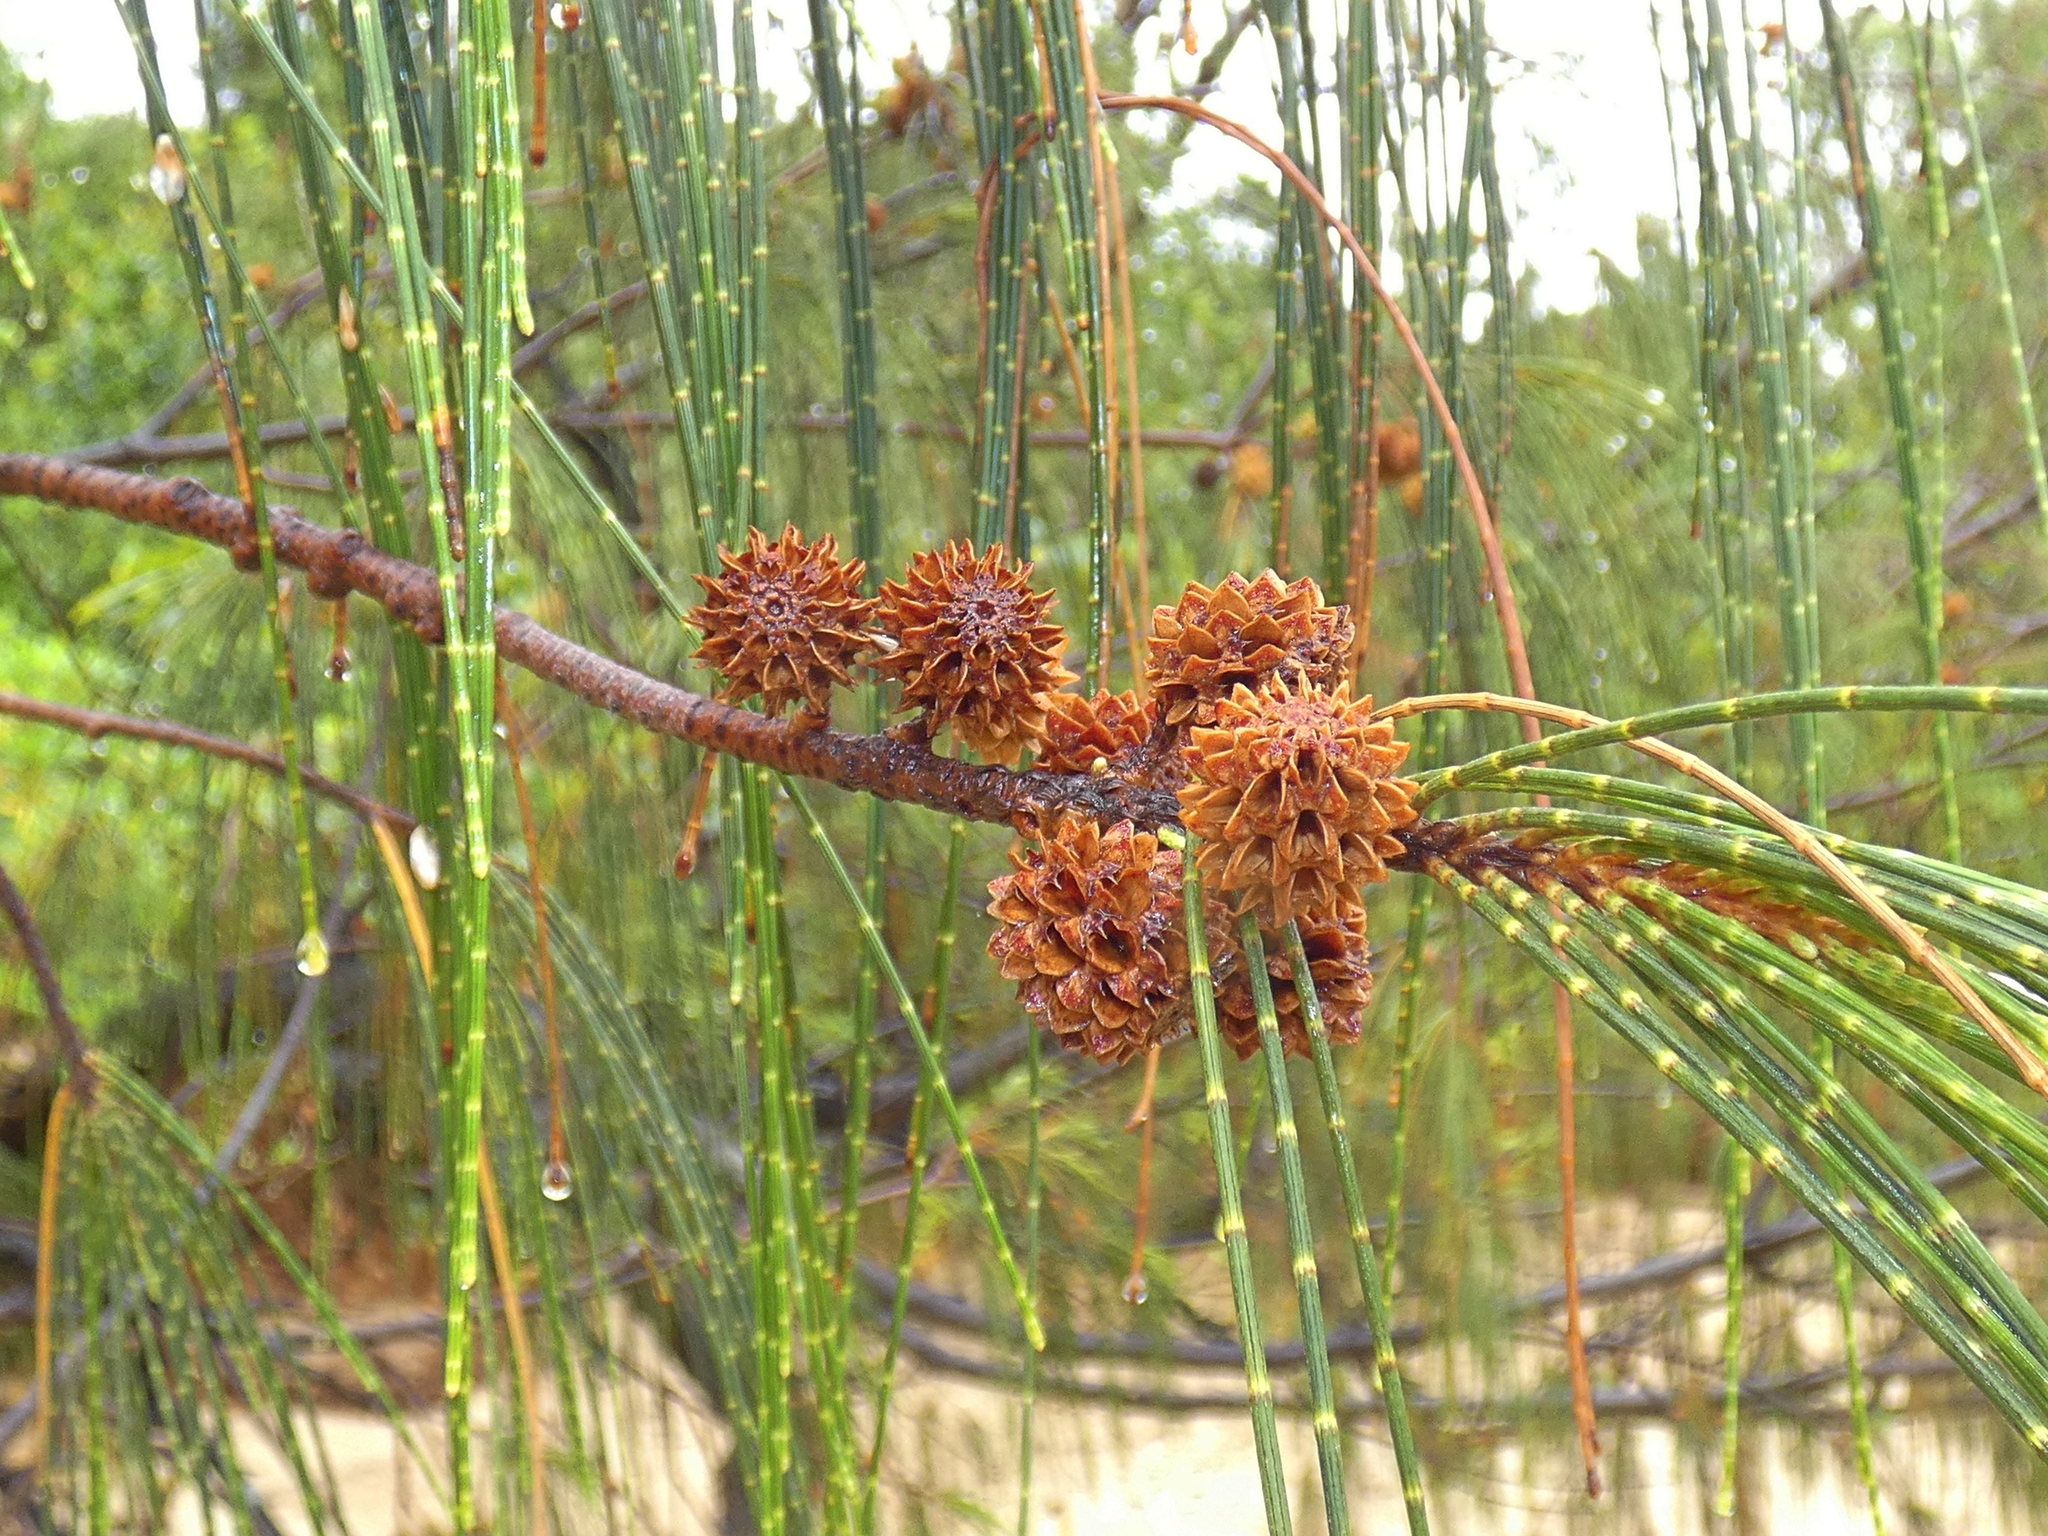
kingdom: Plantae
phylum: Tracheophyta
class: Magnoliopsida
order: Fagales
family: Casuarinaceae
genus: Casuarina
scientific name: Casuarina equisetifolia
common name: Beach sheoak
